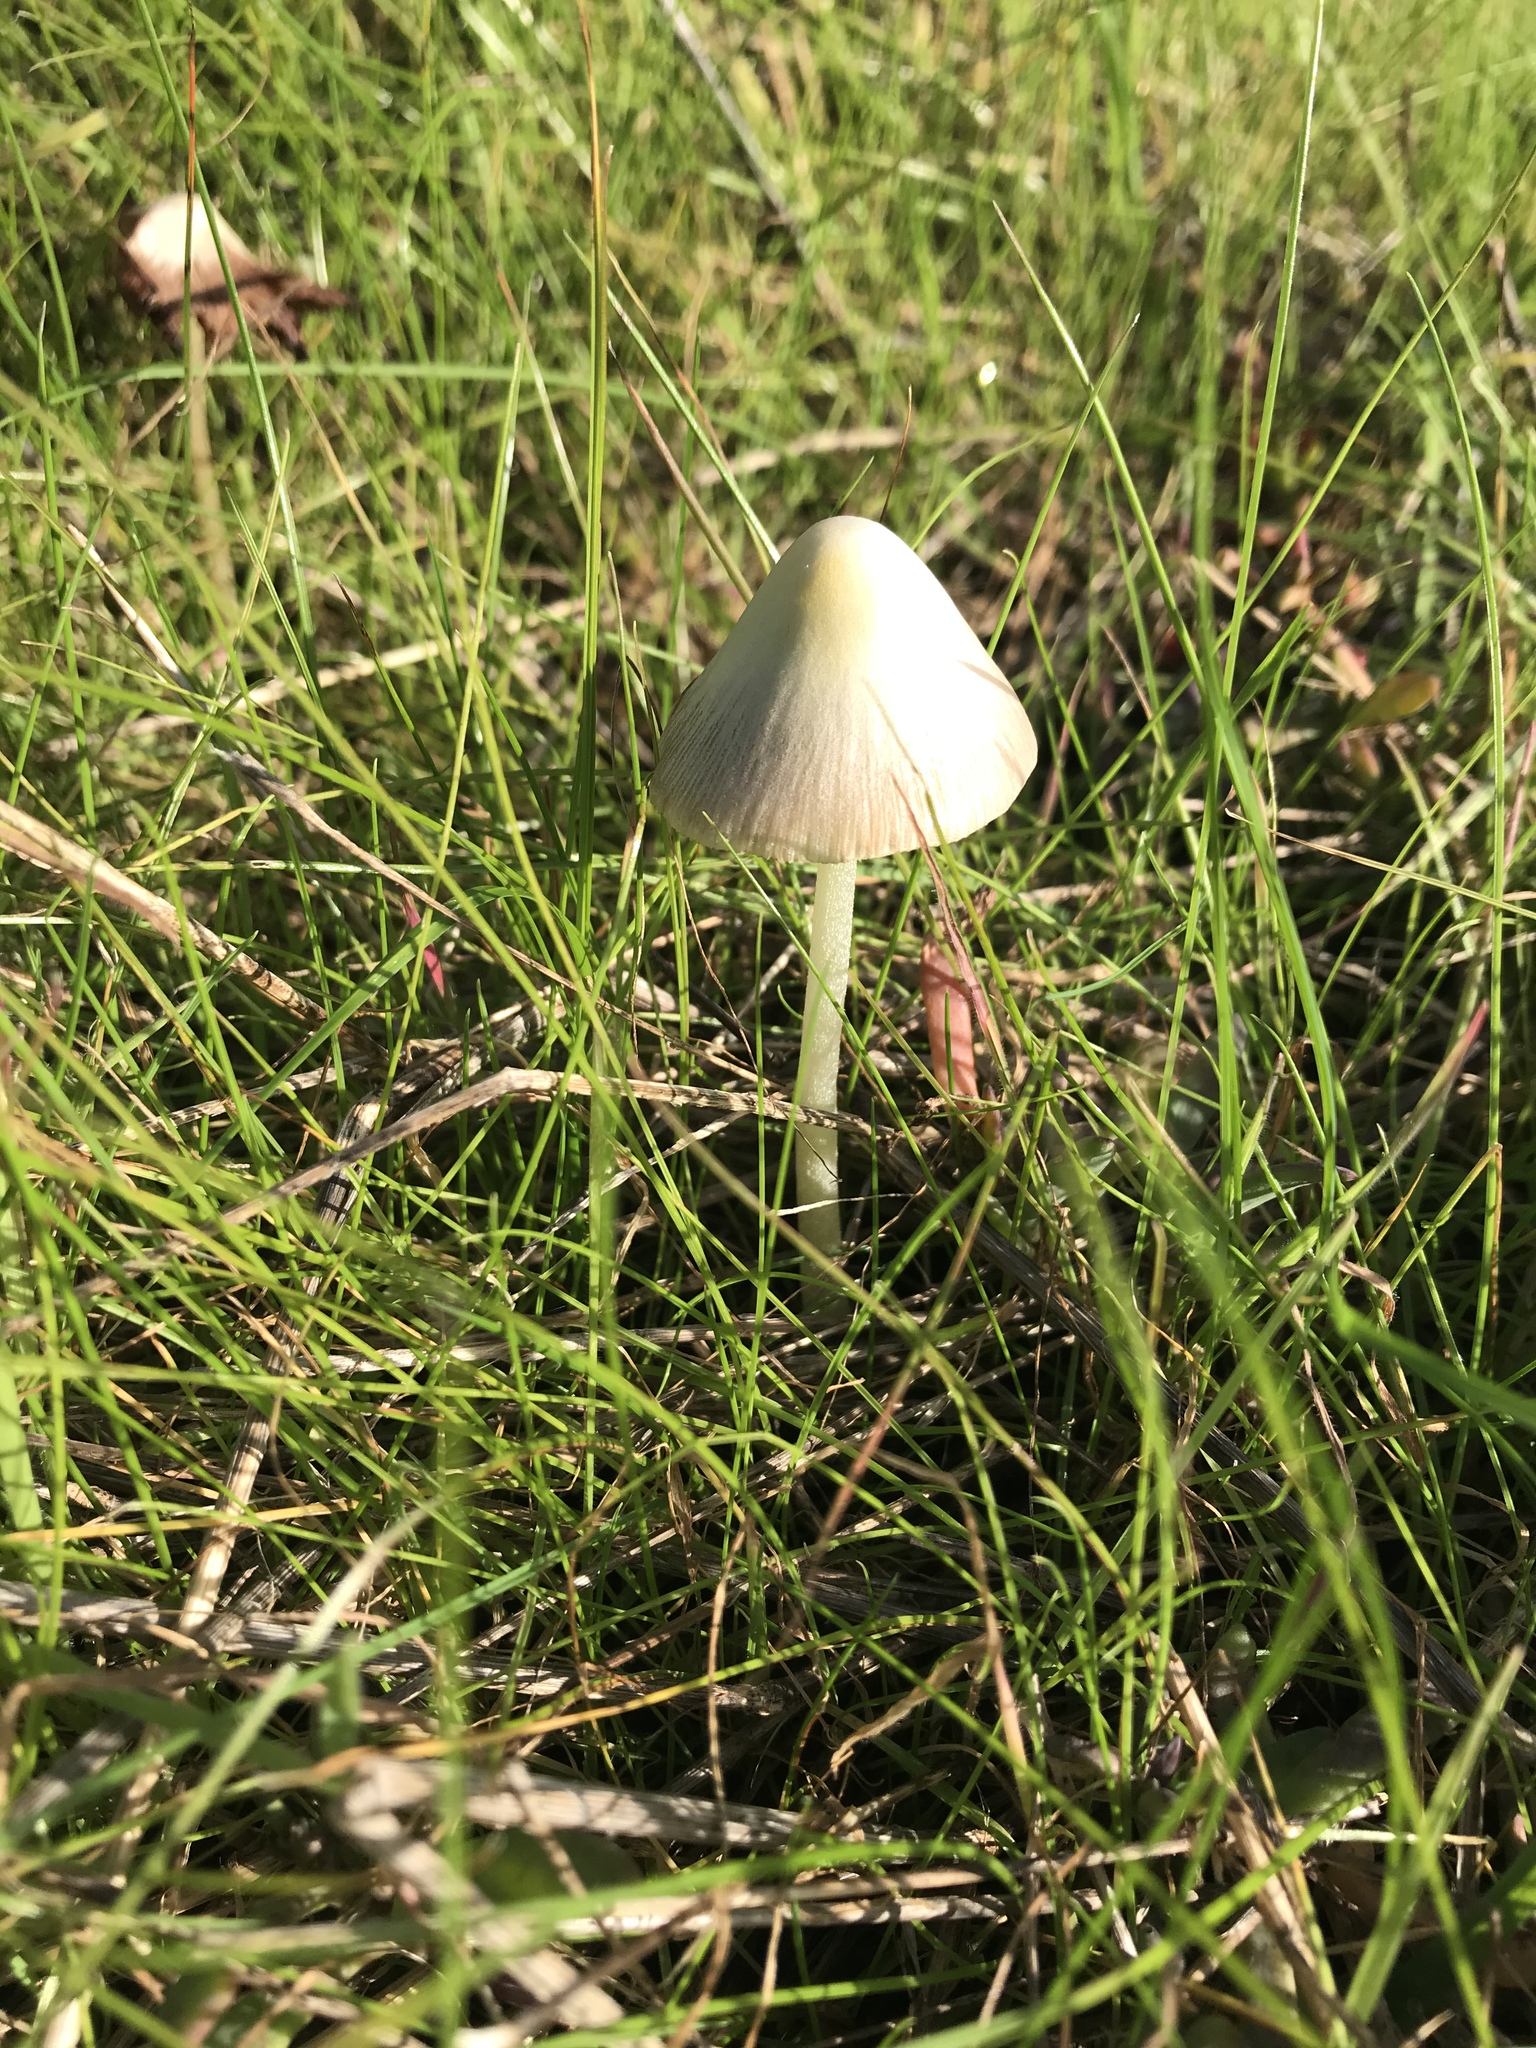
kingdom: Fungi
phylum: Basidiomycota
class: Agaricomycetes
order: Agaricales
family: Bolbitiaceae
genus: Conocybe
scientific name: Conocybe apala
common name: Milky conecap
